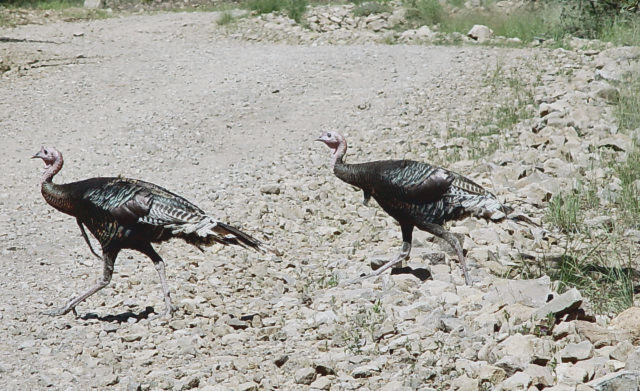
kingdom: Animalia
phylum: Chordata
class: Aves
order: Galliformes
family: Phasianidae
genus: Meleagris
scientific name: Meleagris gallopavo
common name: Wild turkey
